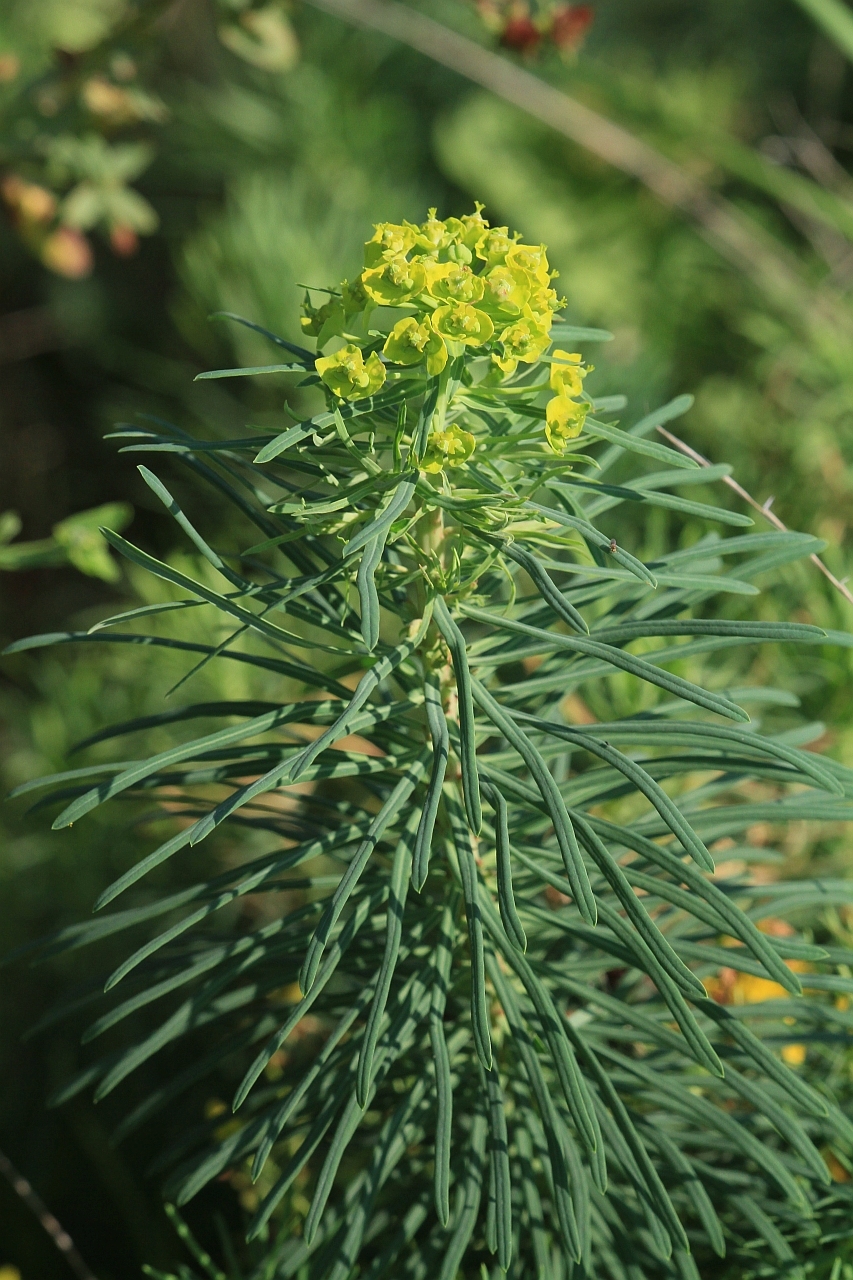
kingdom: Plantae
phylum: Tracheophyta
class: Magnoliopsida
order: Malpighiales
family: Euphorbiaceae
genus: Euphorbia
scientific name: Euphorbia cyparissias
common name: Cypress spurge
